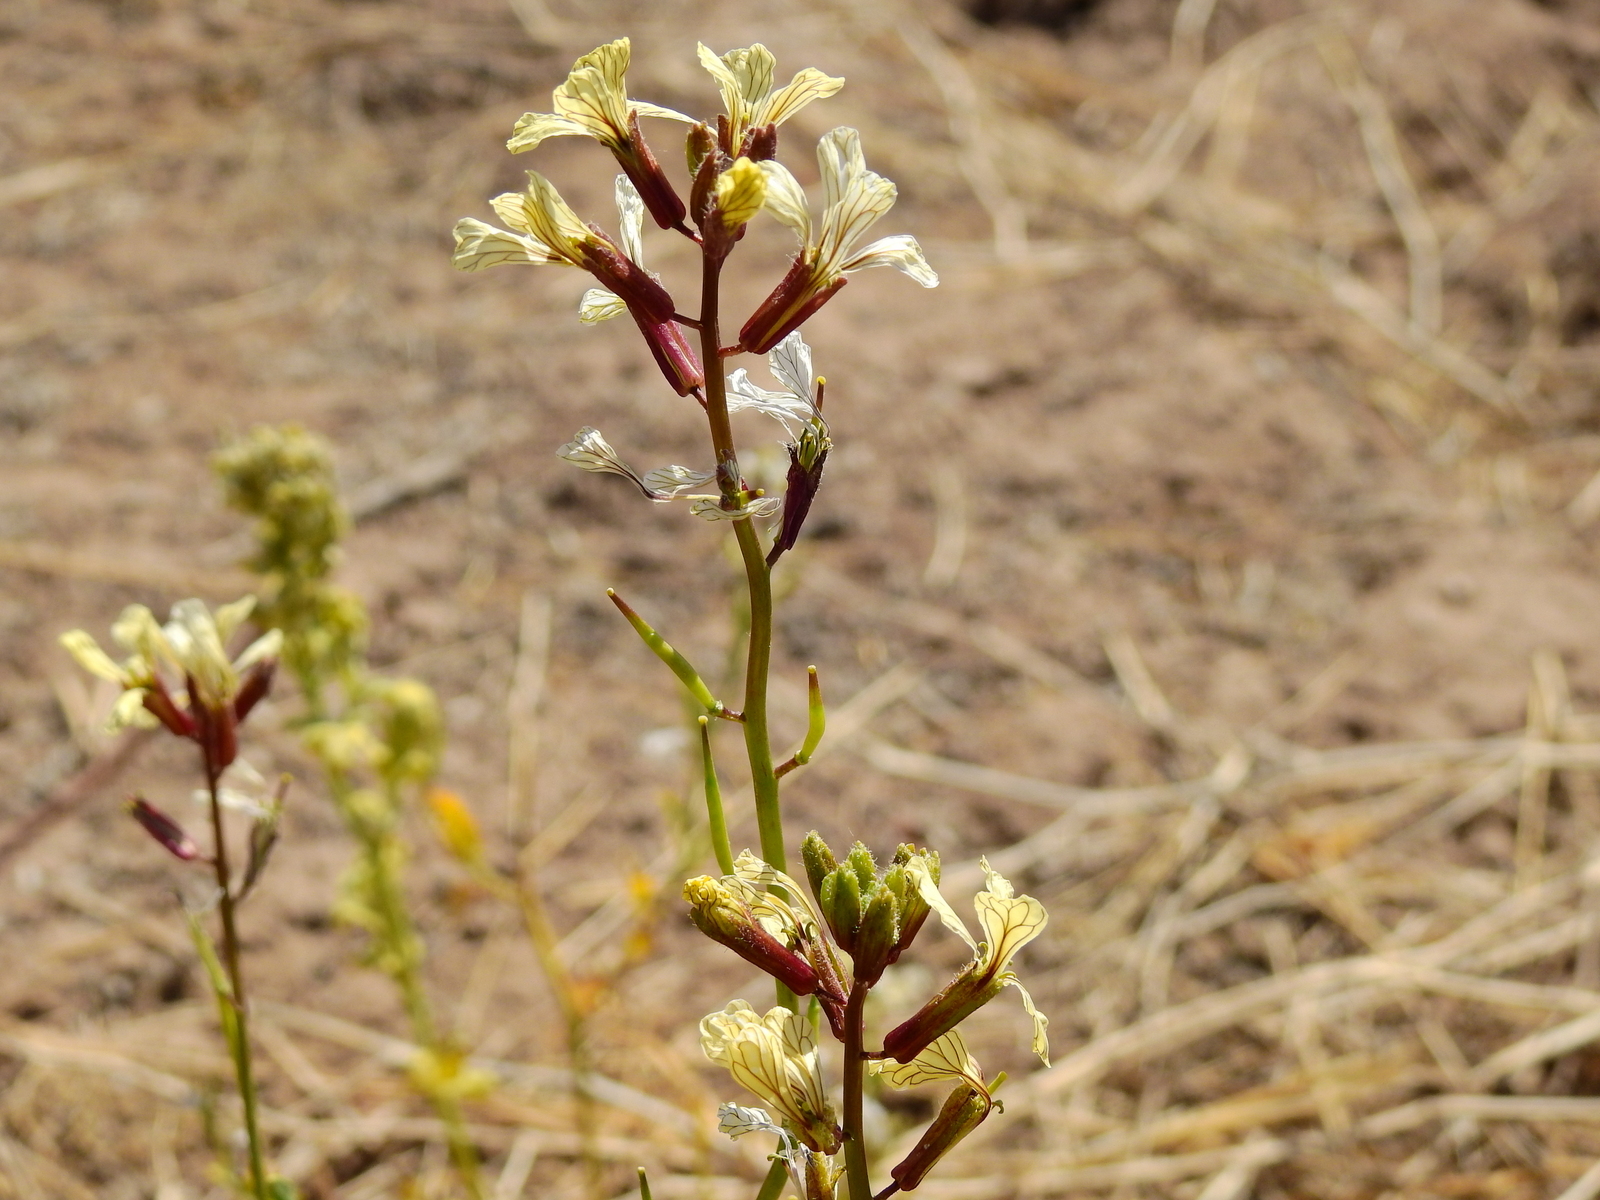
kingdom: Plantae
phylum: Tracheophyta
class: Magnoliopsida
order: Brassicales
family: Brassicaceae
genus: Eruca
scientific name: Eruca vesicaria
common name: Garden rocket
